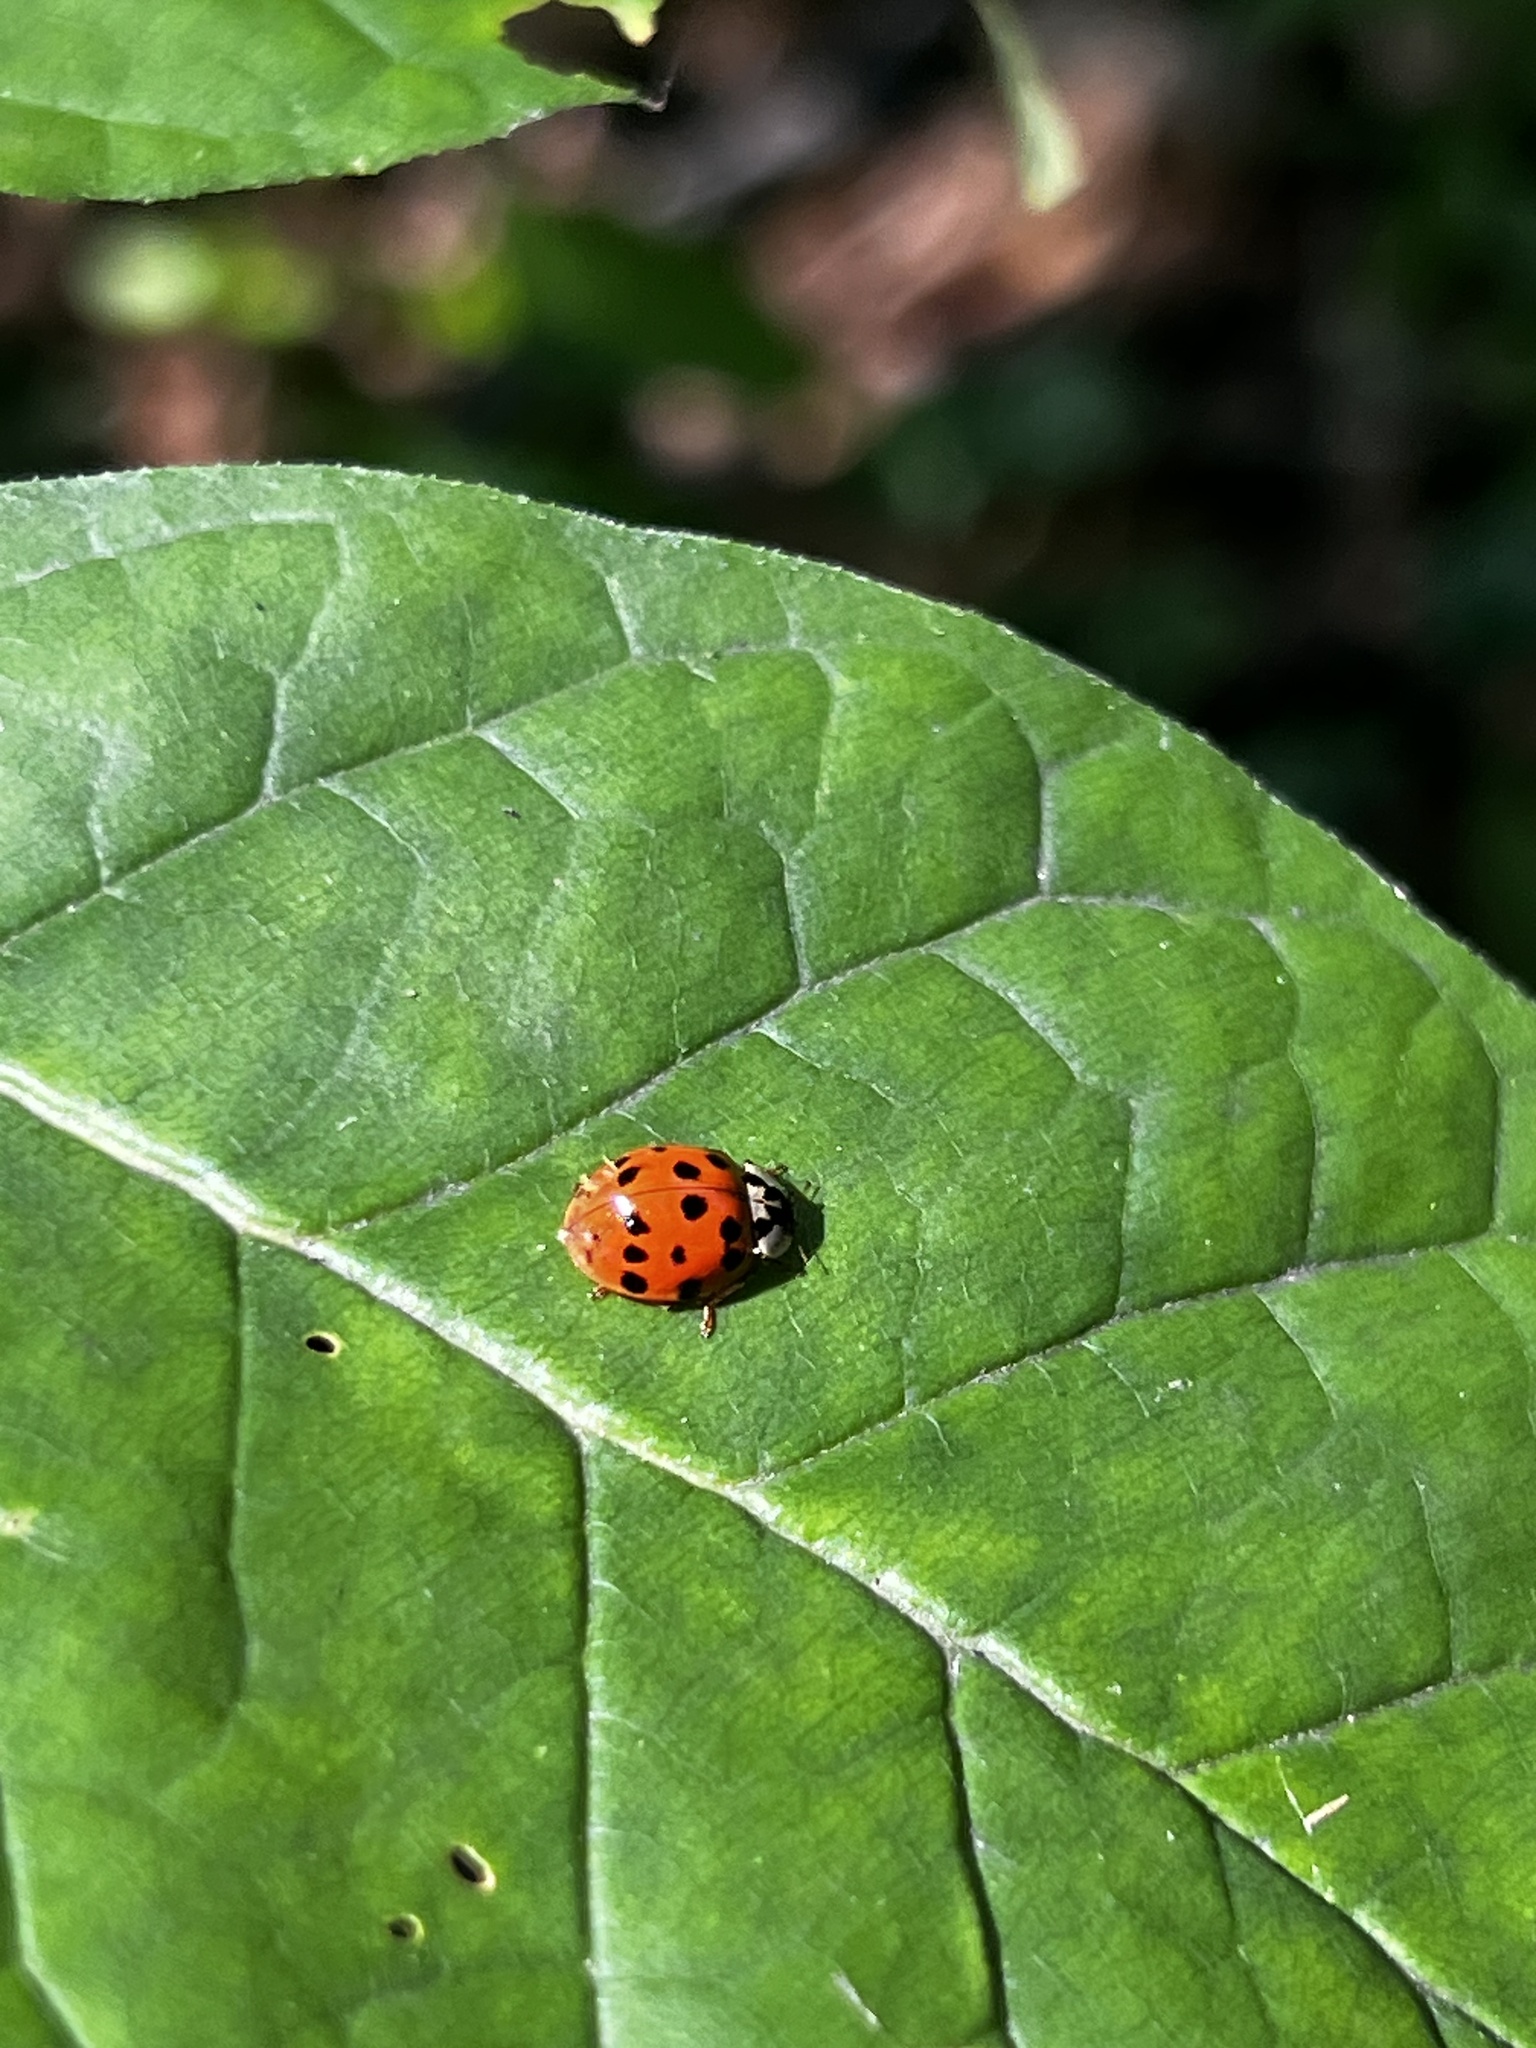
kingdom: Animalia
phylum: Arthropoda
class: Insecta
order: Coleoptera
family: Coccinellidae
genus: Harmonia
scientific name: Harmonia axyridis
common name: Harlequin ladybird
